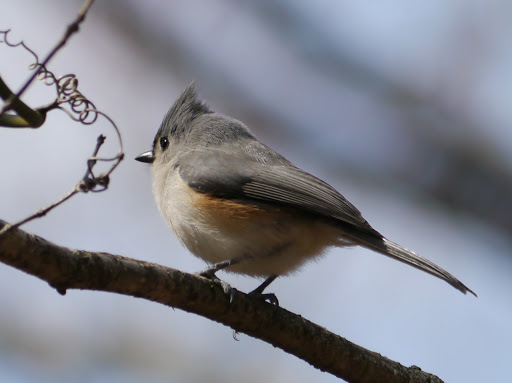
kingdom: Animalia
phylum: Chordata
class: Aves
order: Passeriformes
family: Paridae
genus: Baeolophus
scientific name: Baeolophus bicolor
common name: Tufted titmouse
